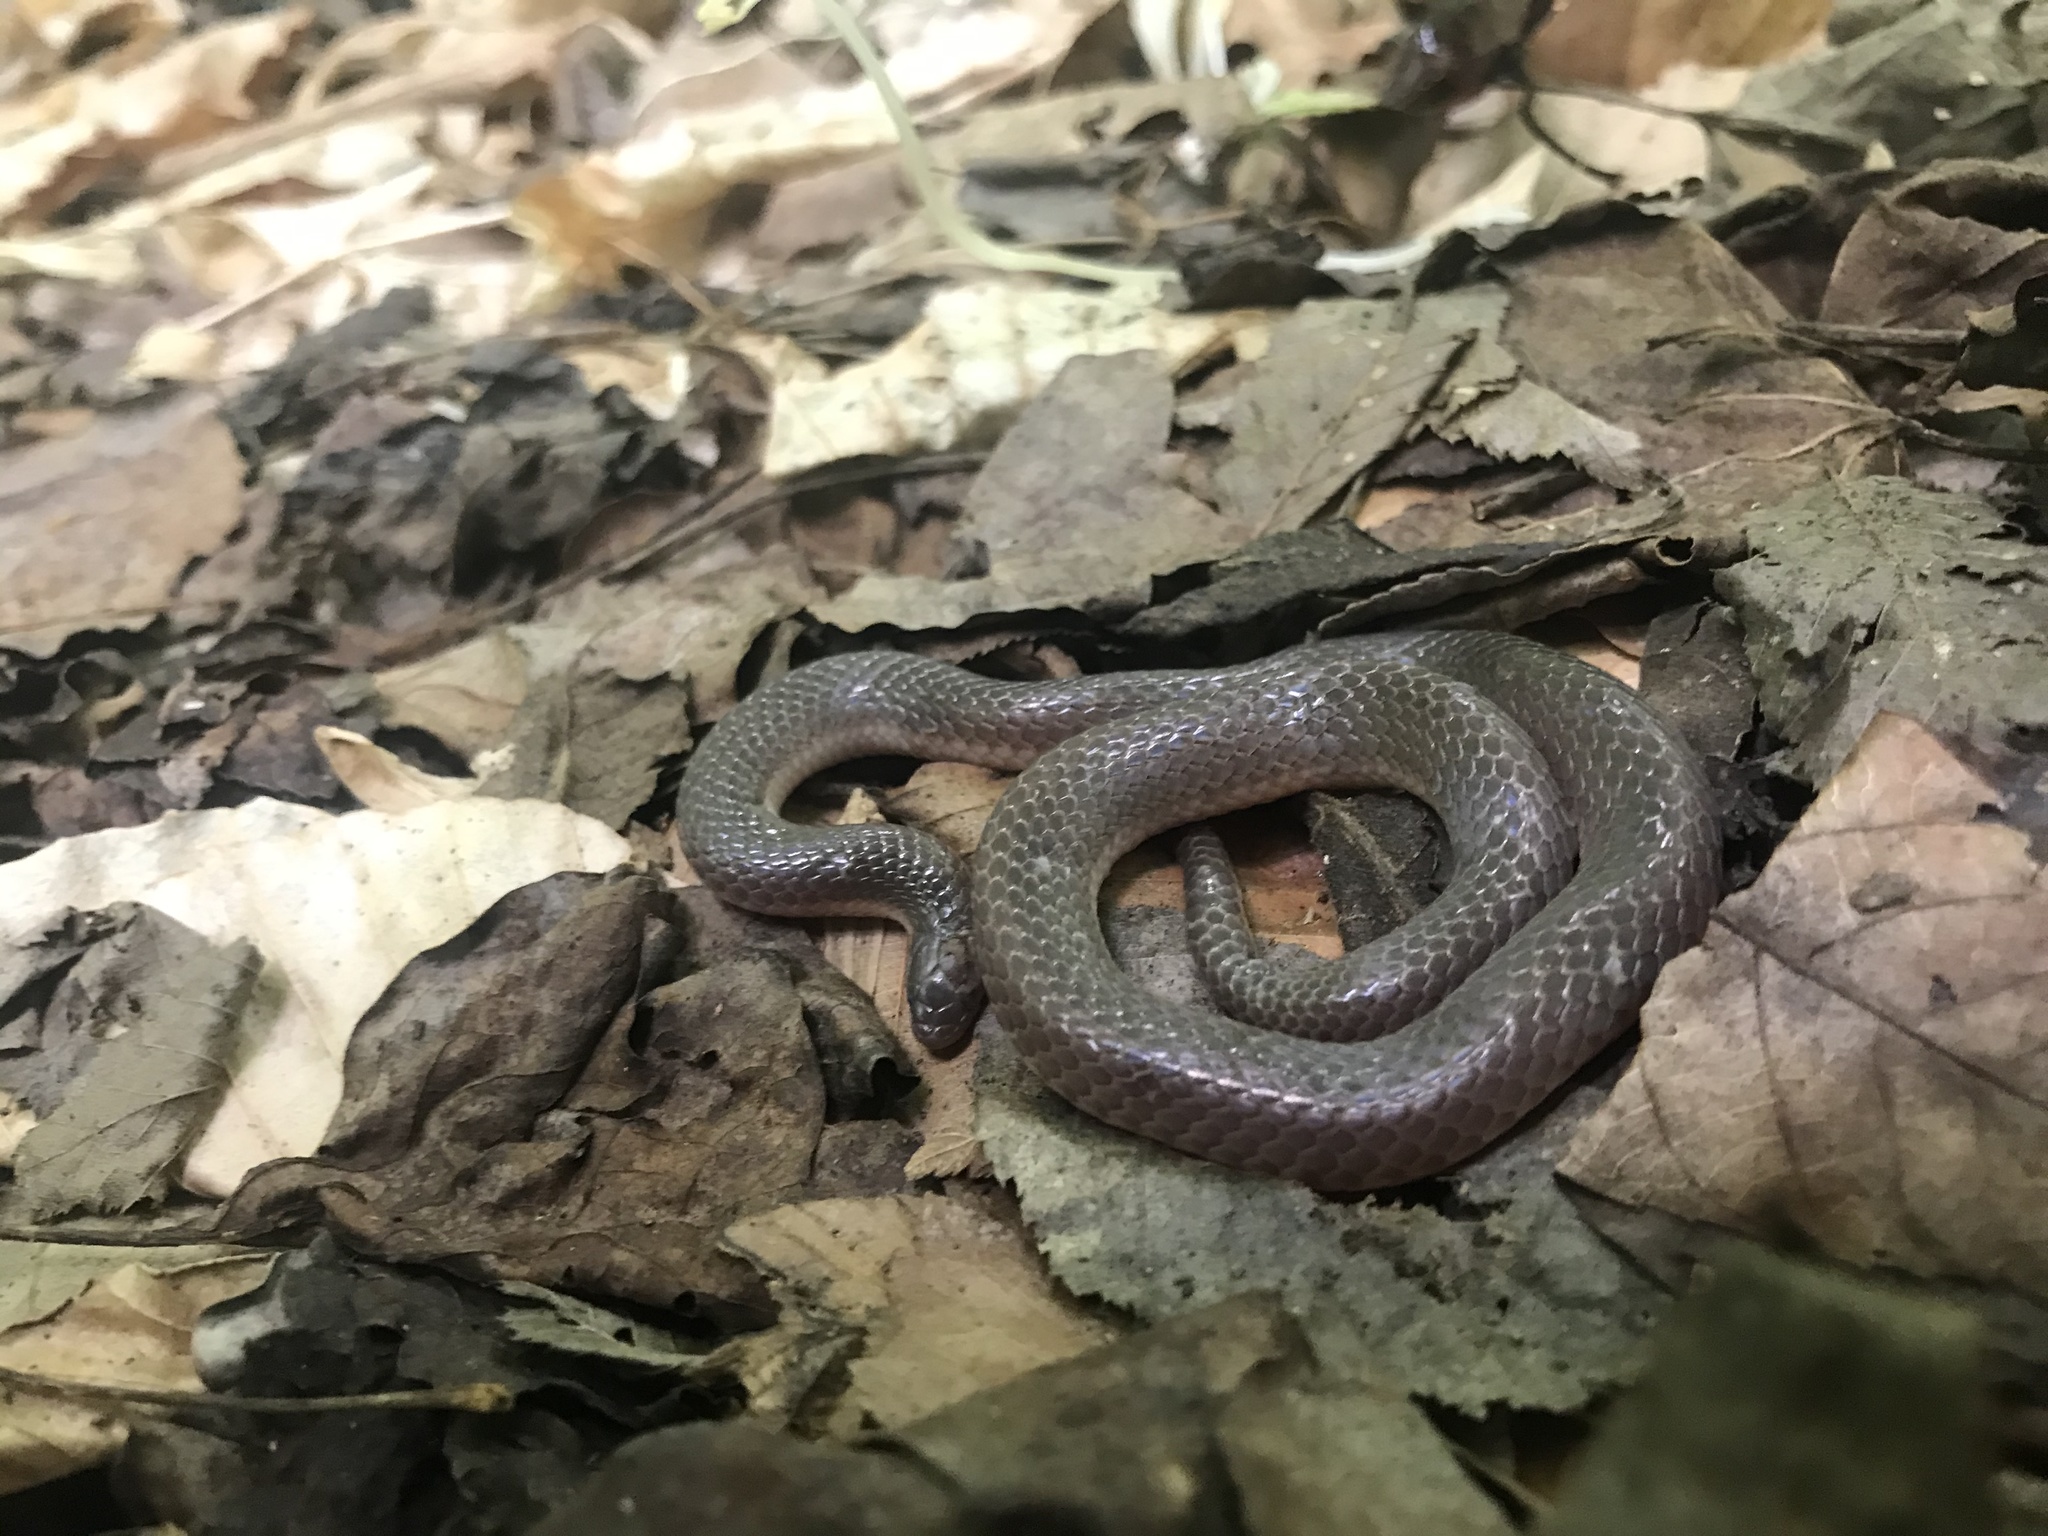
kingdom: Animalia
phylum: Chordata
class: Squamata
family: Colubridae
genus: Carphophis
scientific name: Carphophis amoenus
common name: Eastern worm snake
